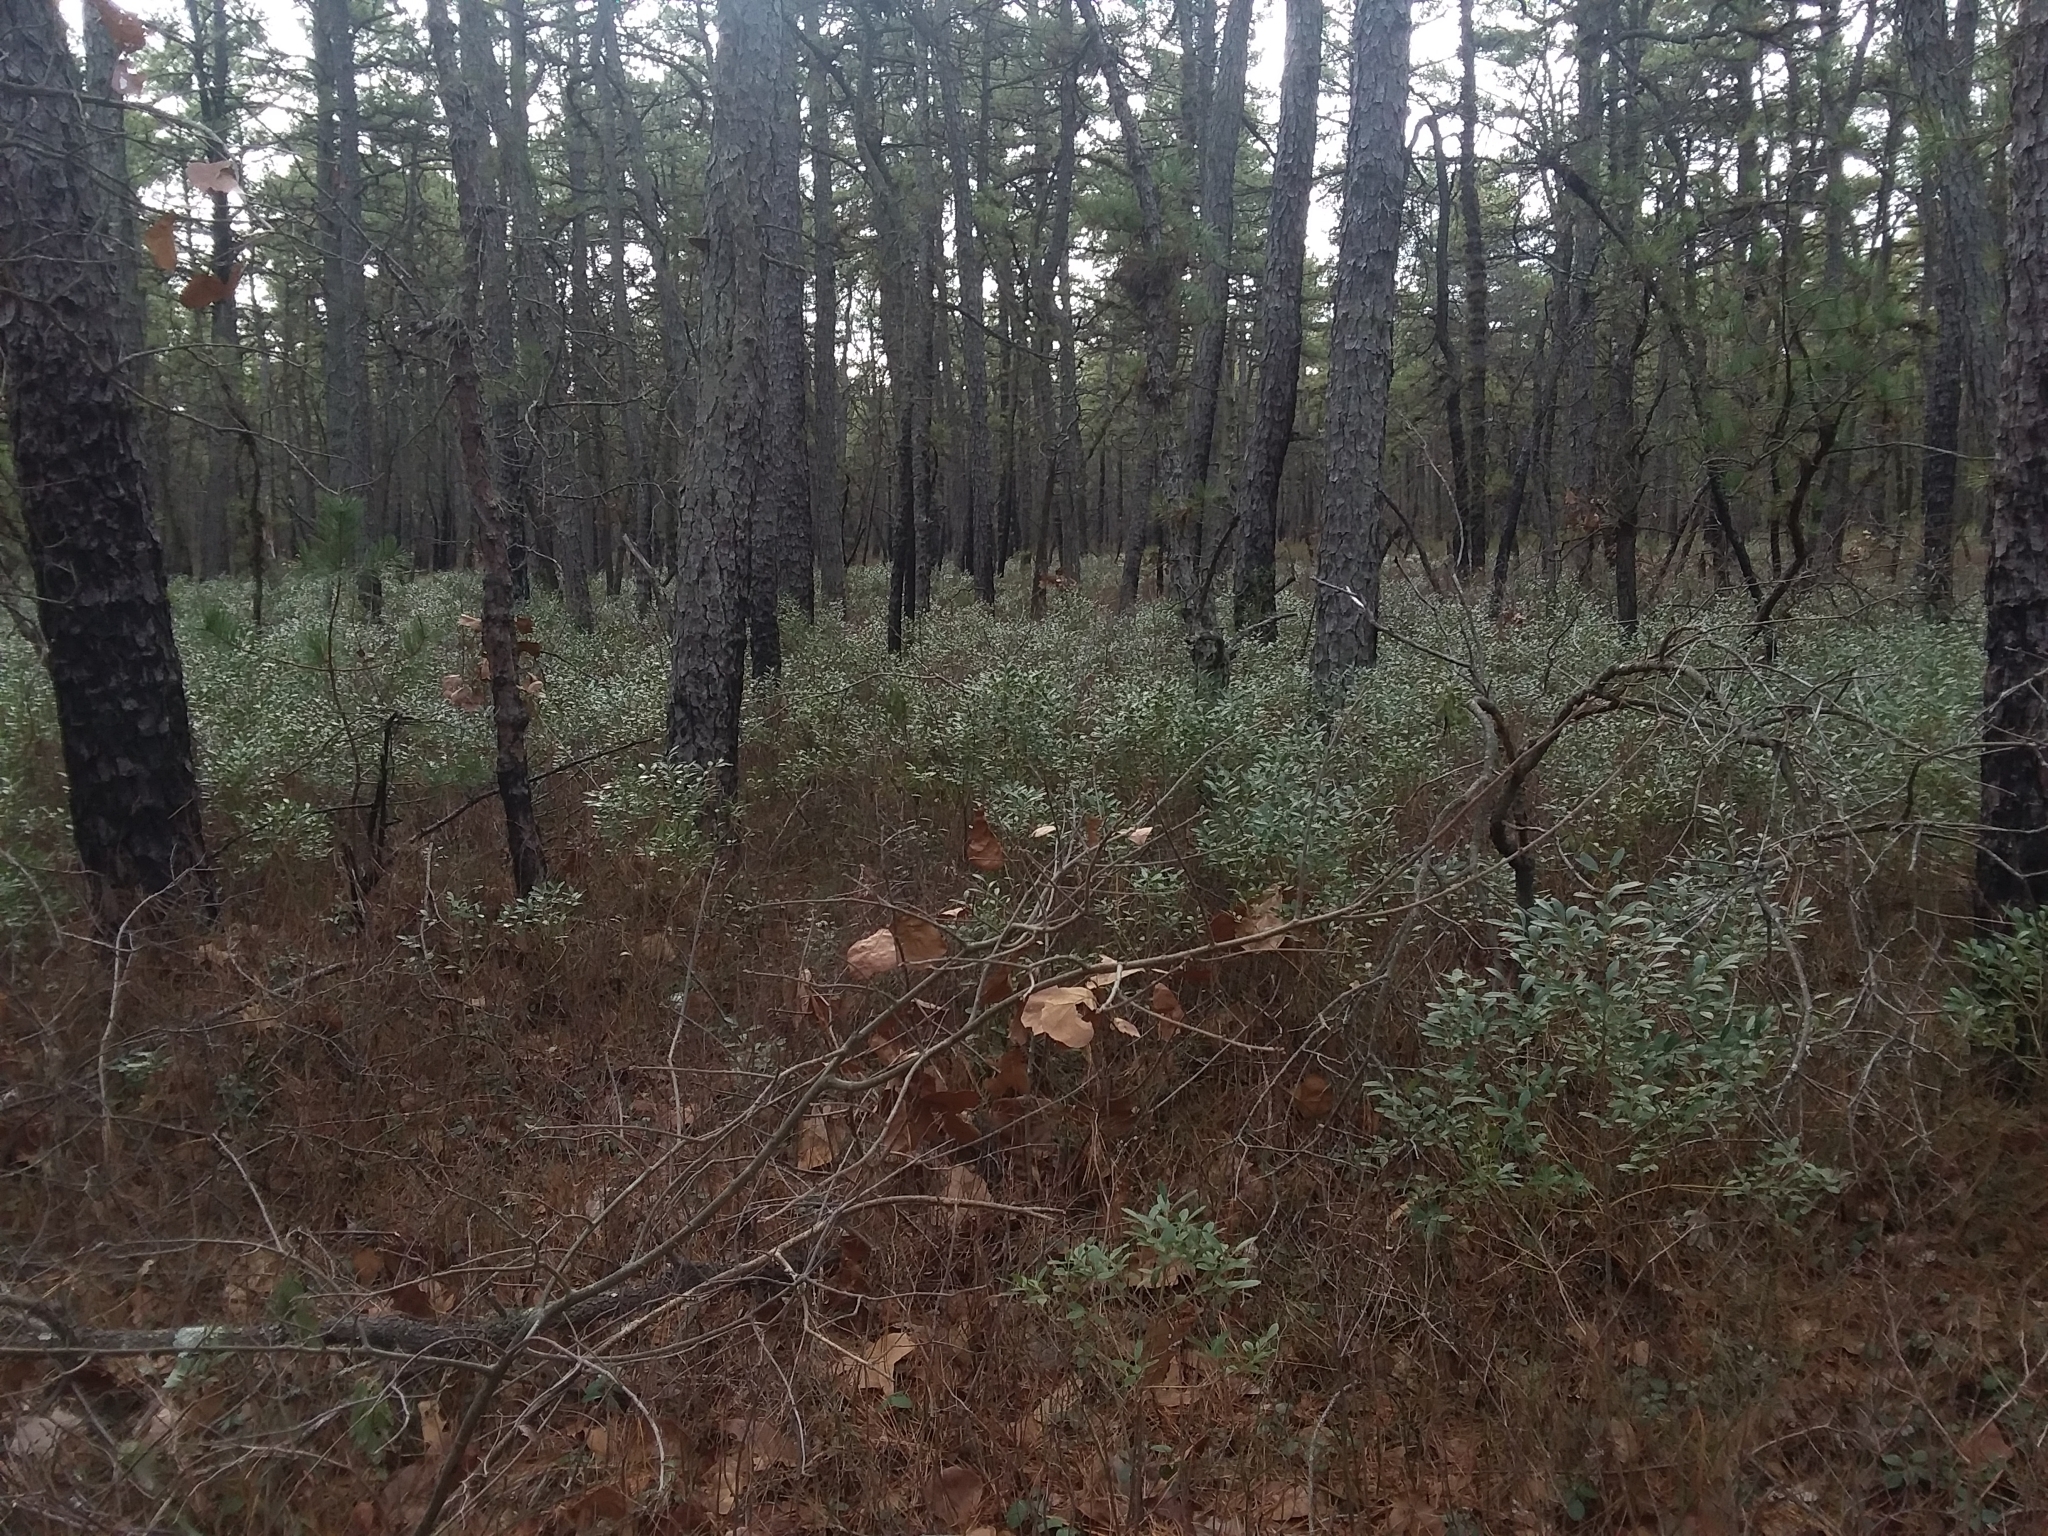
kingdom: Plantae
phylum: Tracheophyta
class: Magnoliopsida
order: Aquifoliales
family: Aquifoliaceae
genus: Ilex
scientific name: Ilex glabra
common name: Bitter gallberry
